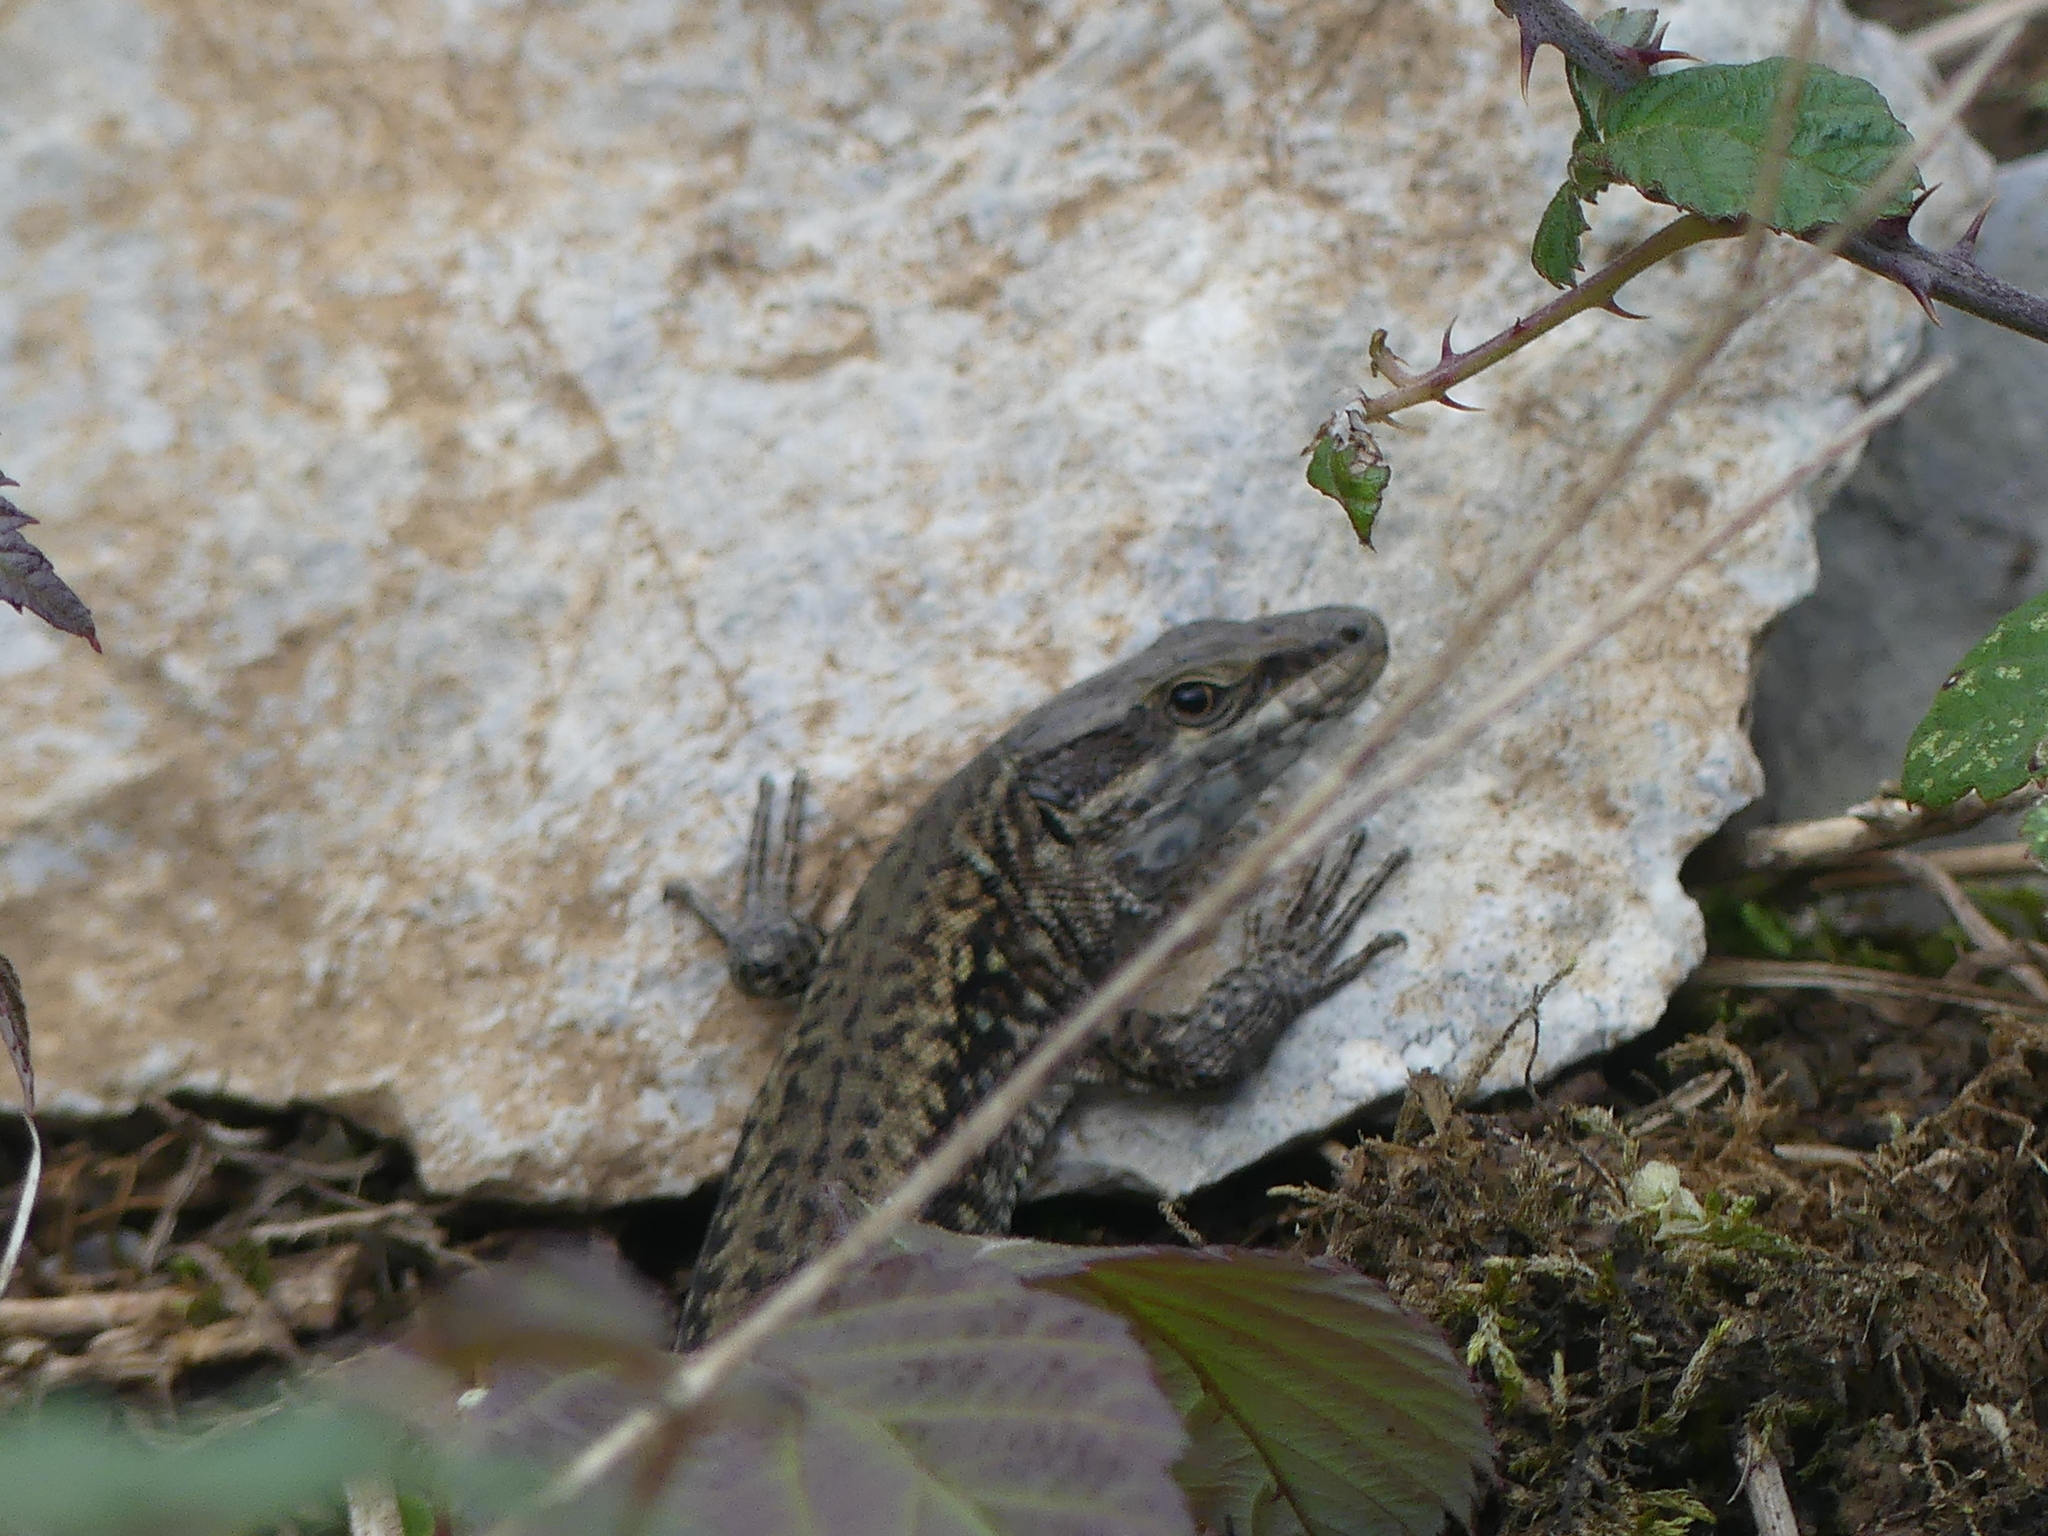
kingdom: Animalia
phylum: Chordata
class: Squamata
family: Lacertidae
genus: Podarcis
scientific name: Podarcis muralis
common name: Common wall lizard
